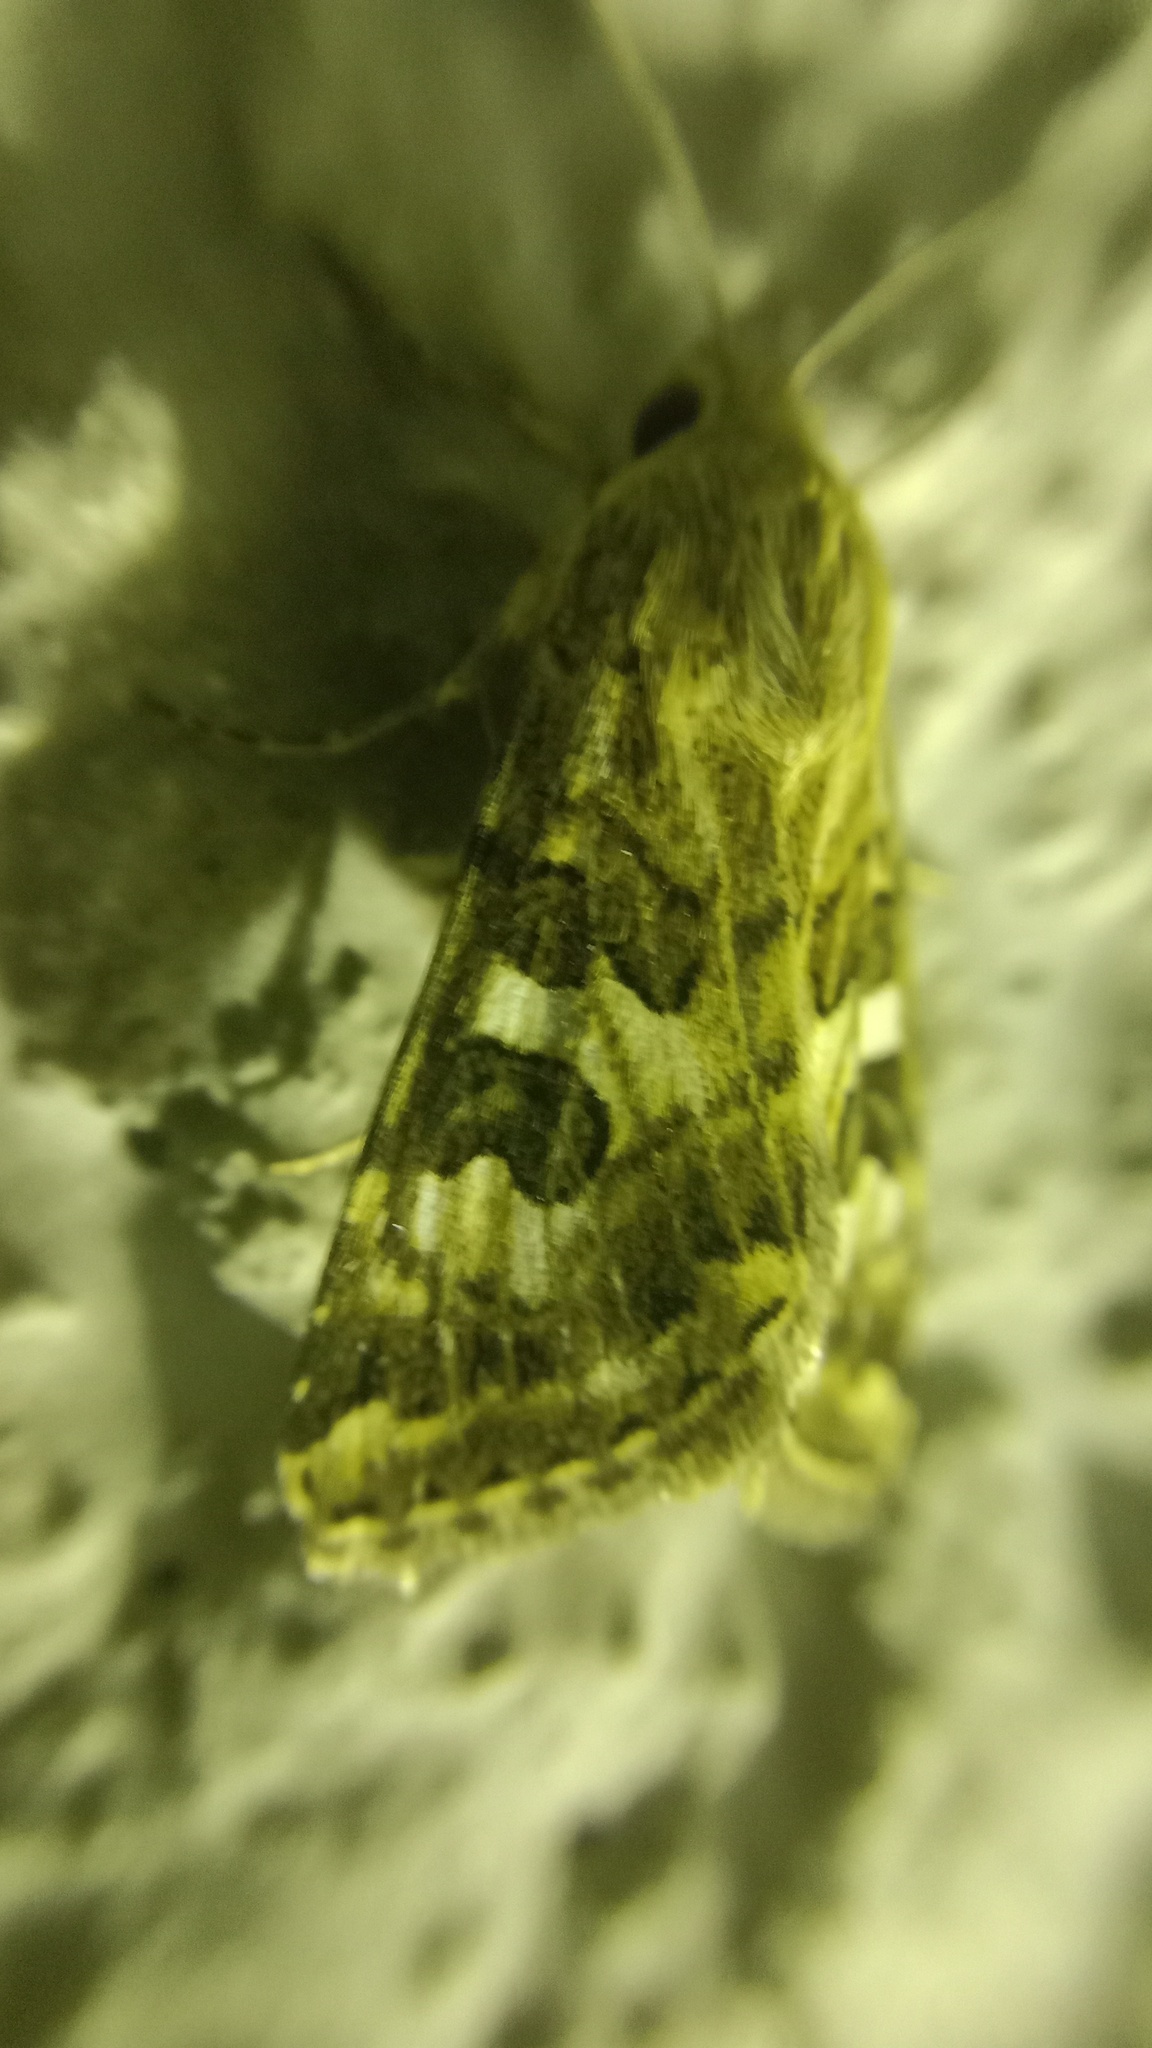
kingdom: Animalia
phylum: Arthropoda
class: Insecta
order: Lepidoptera
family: Noctuidae
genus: Protoschinia
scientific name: Protoschinia scutosa
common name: Spotted clover
